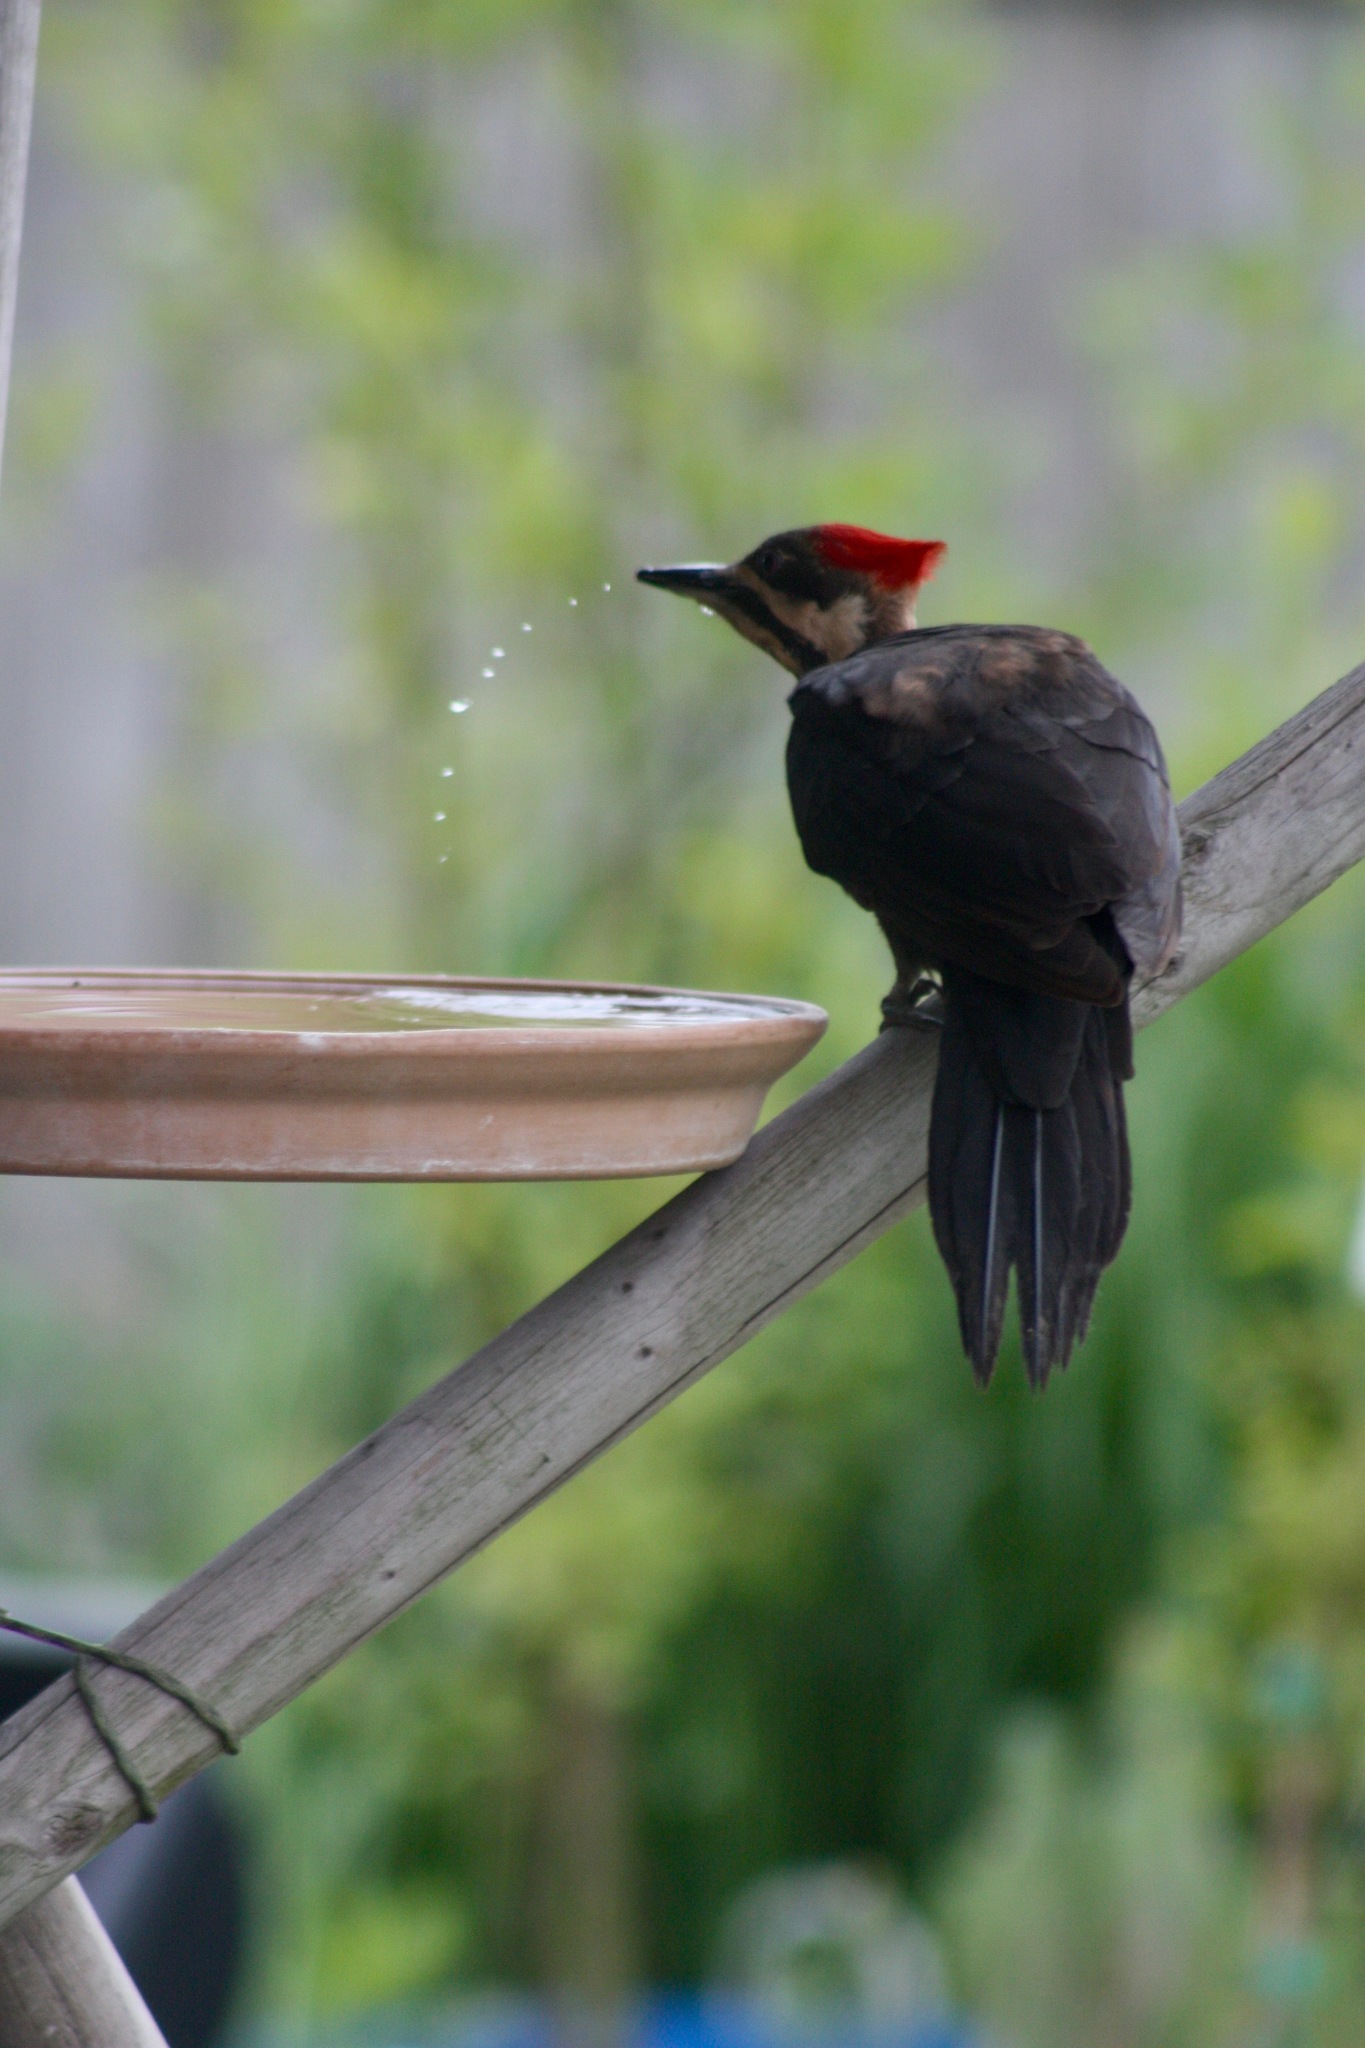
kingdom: Animalia
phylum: Chordata
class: Aves
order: Piciformes
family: Picidae
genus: Dryocopus
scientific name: Dryocopus pileatus
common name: Pileated woodpecker
